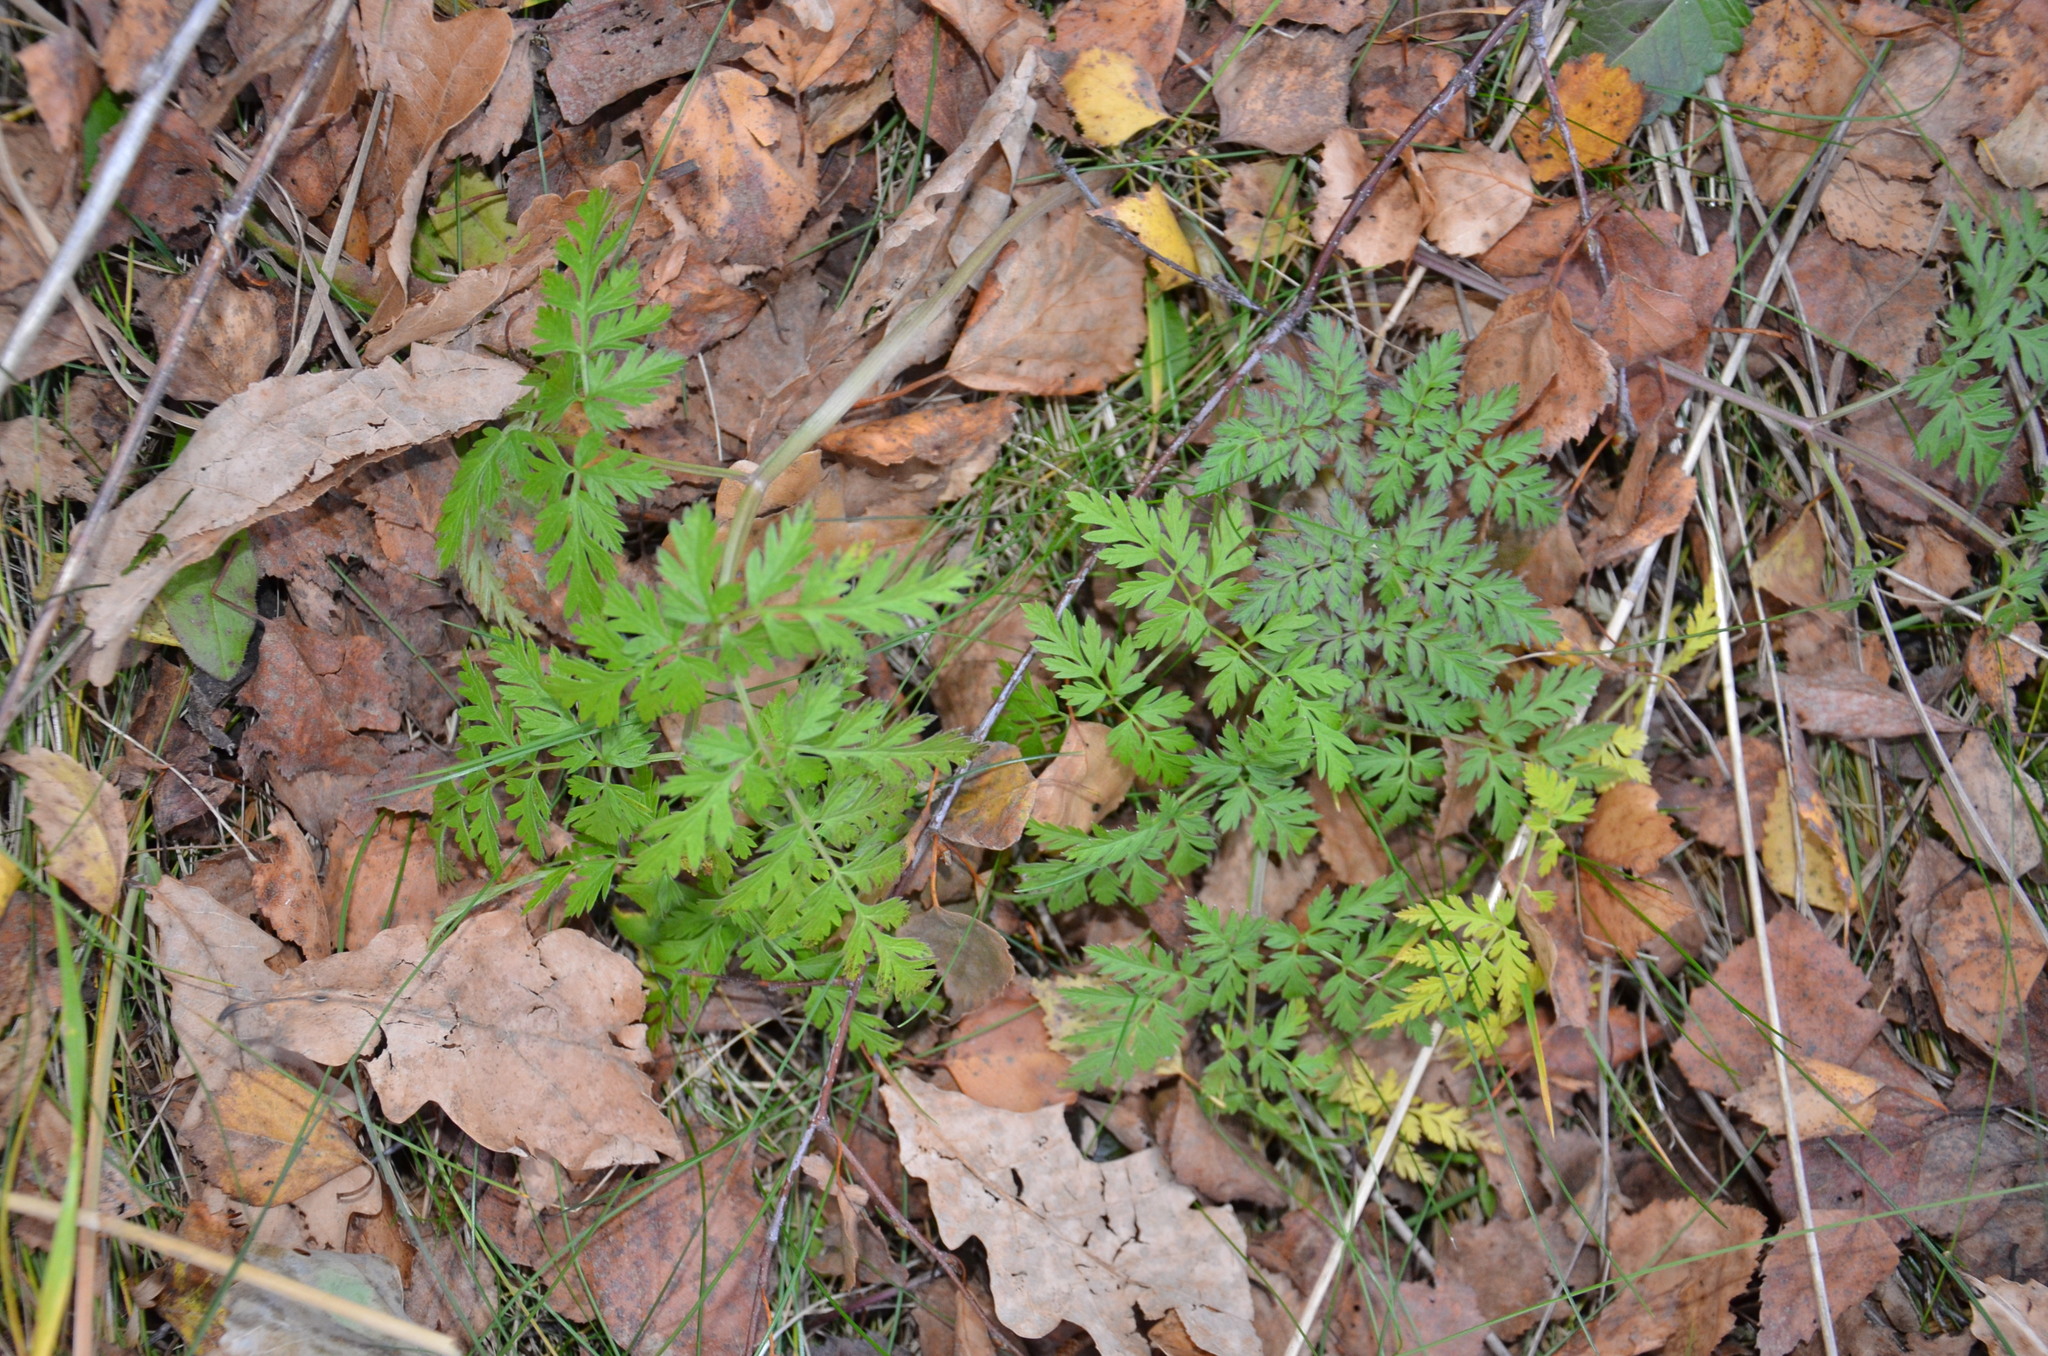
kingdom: Plantae
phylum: Tracheophyta
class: Magnoliopsida
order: Apiales
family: Apiaceae
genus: Anthriscus
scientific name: Anthriscus sylvestris
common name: Cow parsley
